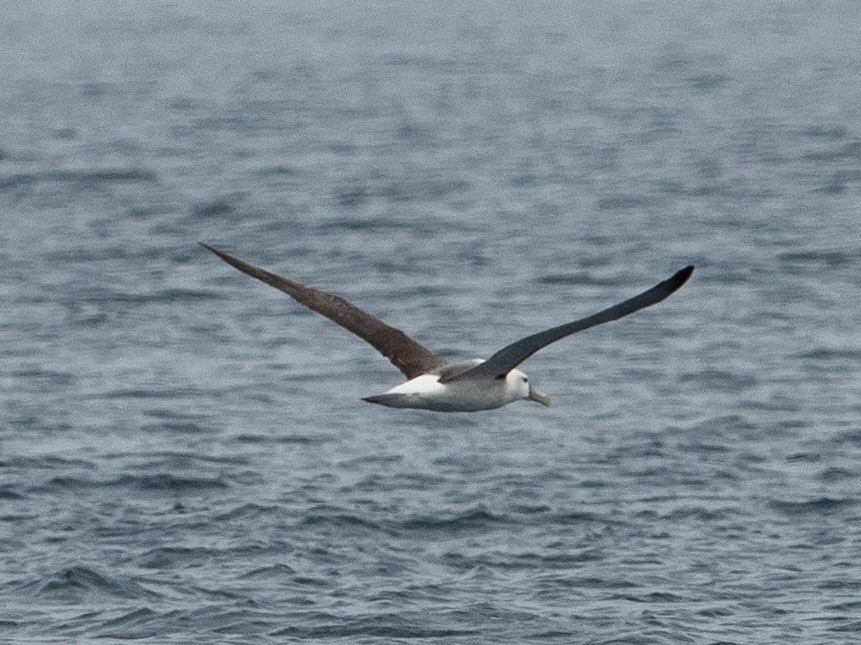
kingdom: Animalia
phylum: Chordata
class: Aves
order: Procellariiformes
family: Diomedeidae
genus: Thalassarche
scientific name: Thalassarche cauta
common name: Shy albatross
